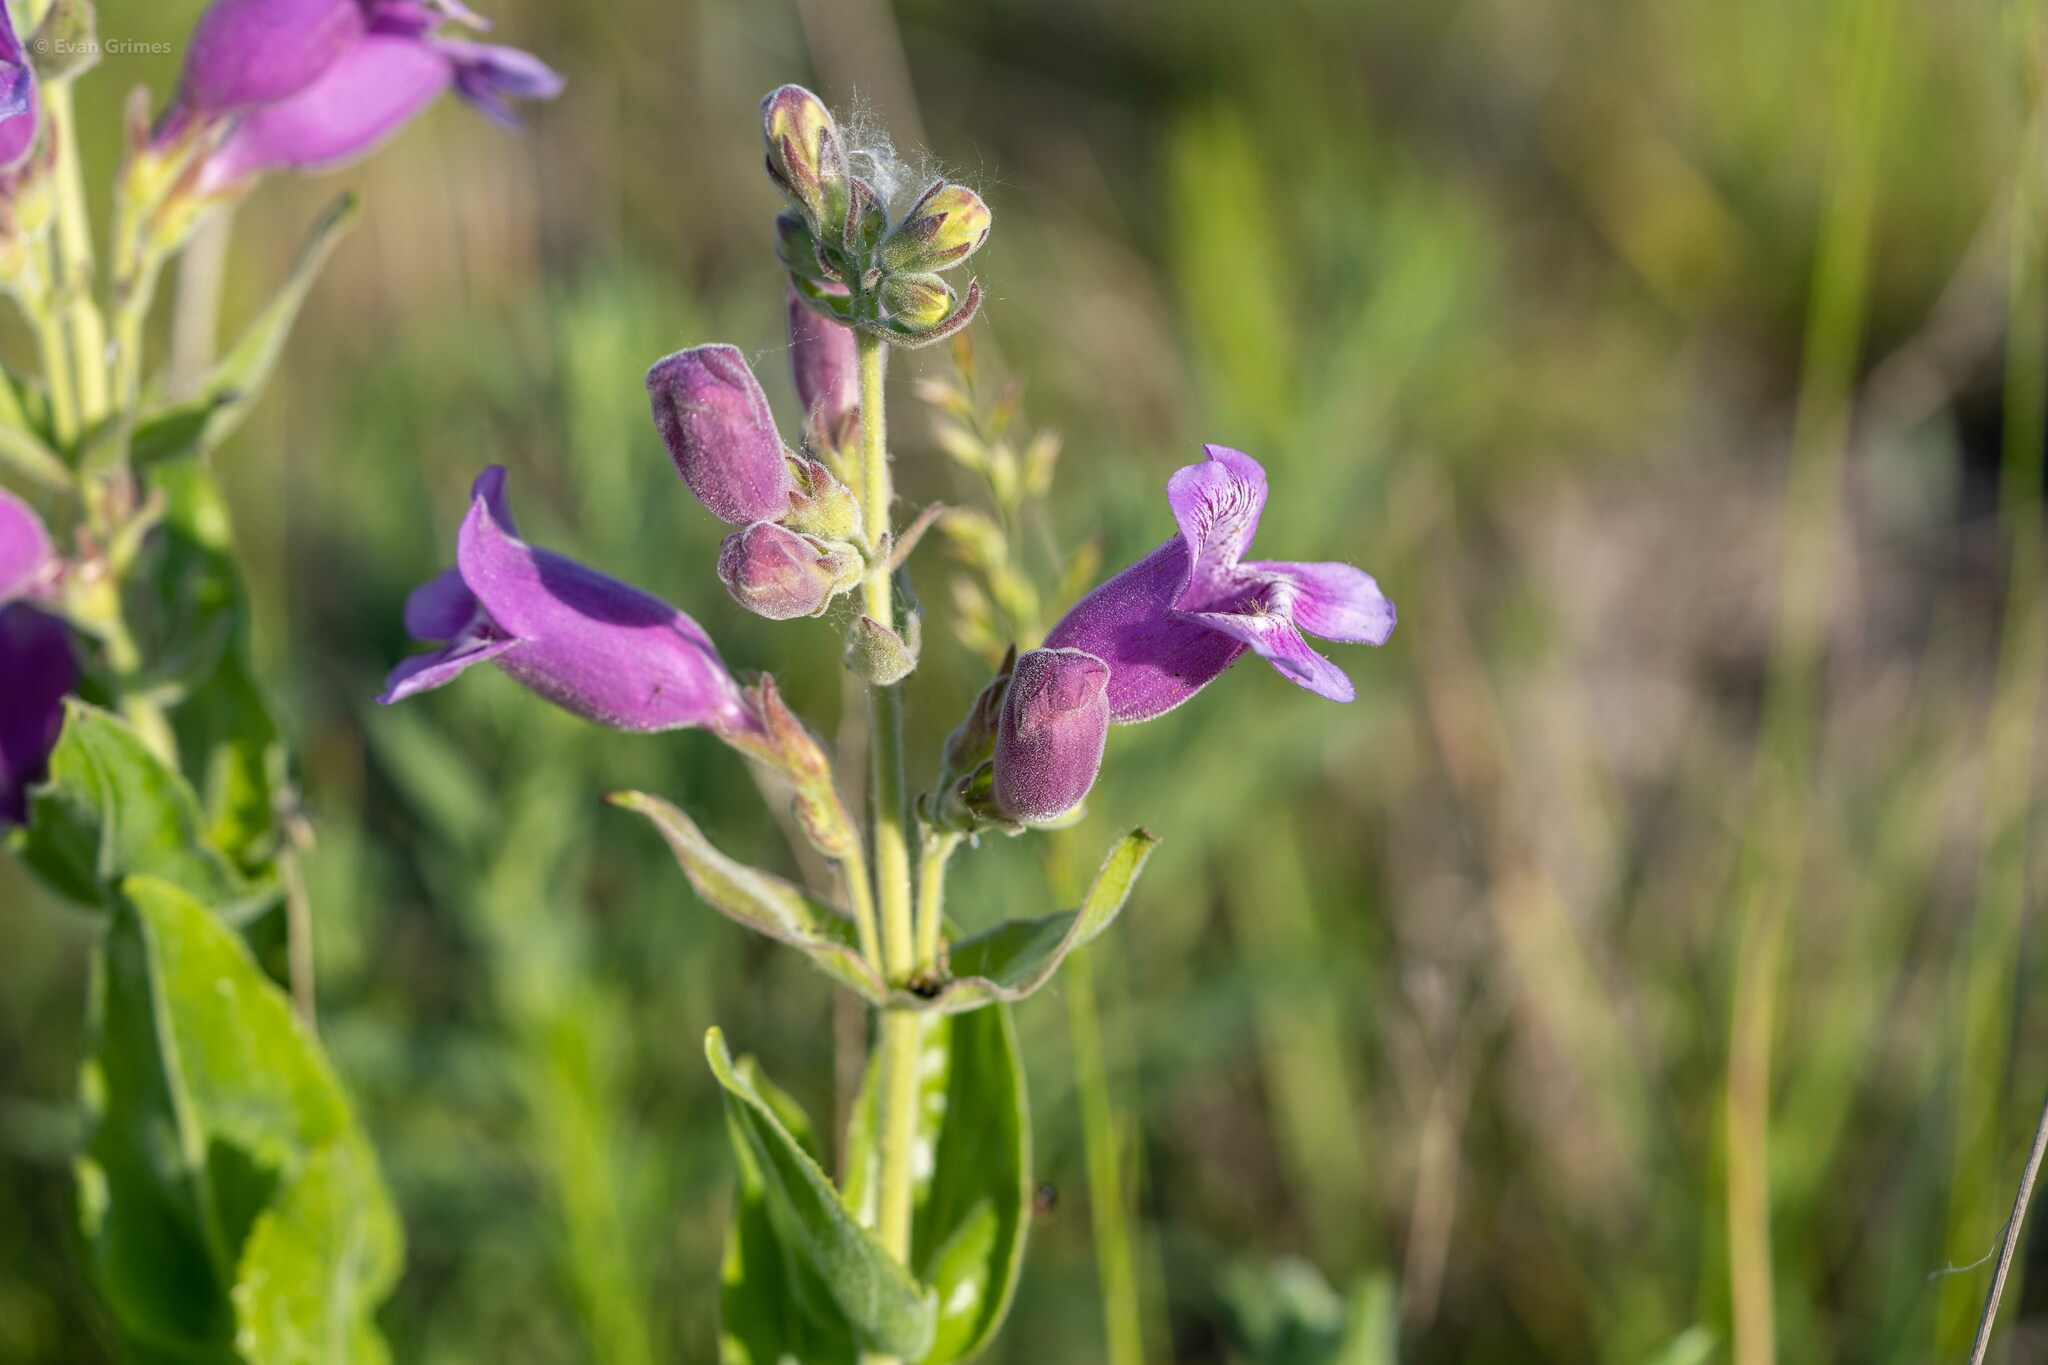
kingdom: Plantae
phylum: Tracheophyta
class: Magnoliopsida
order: Lamiales
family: Plantaginaceae
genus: Penstemon
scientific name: Penstemon cobaea
